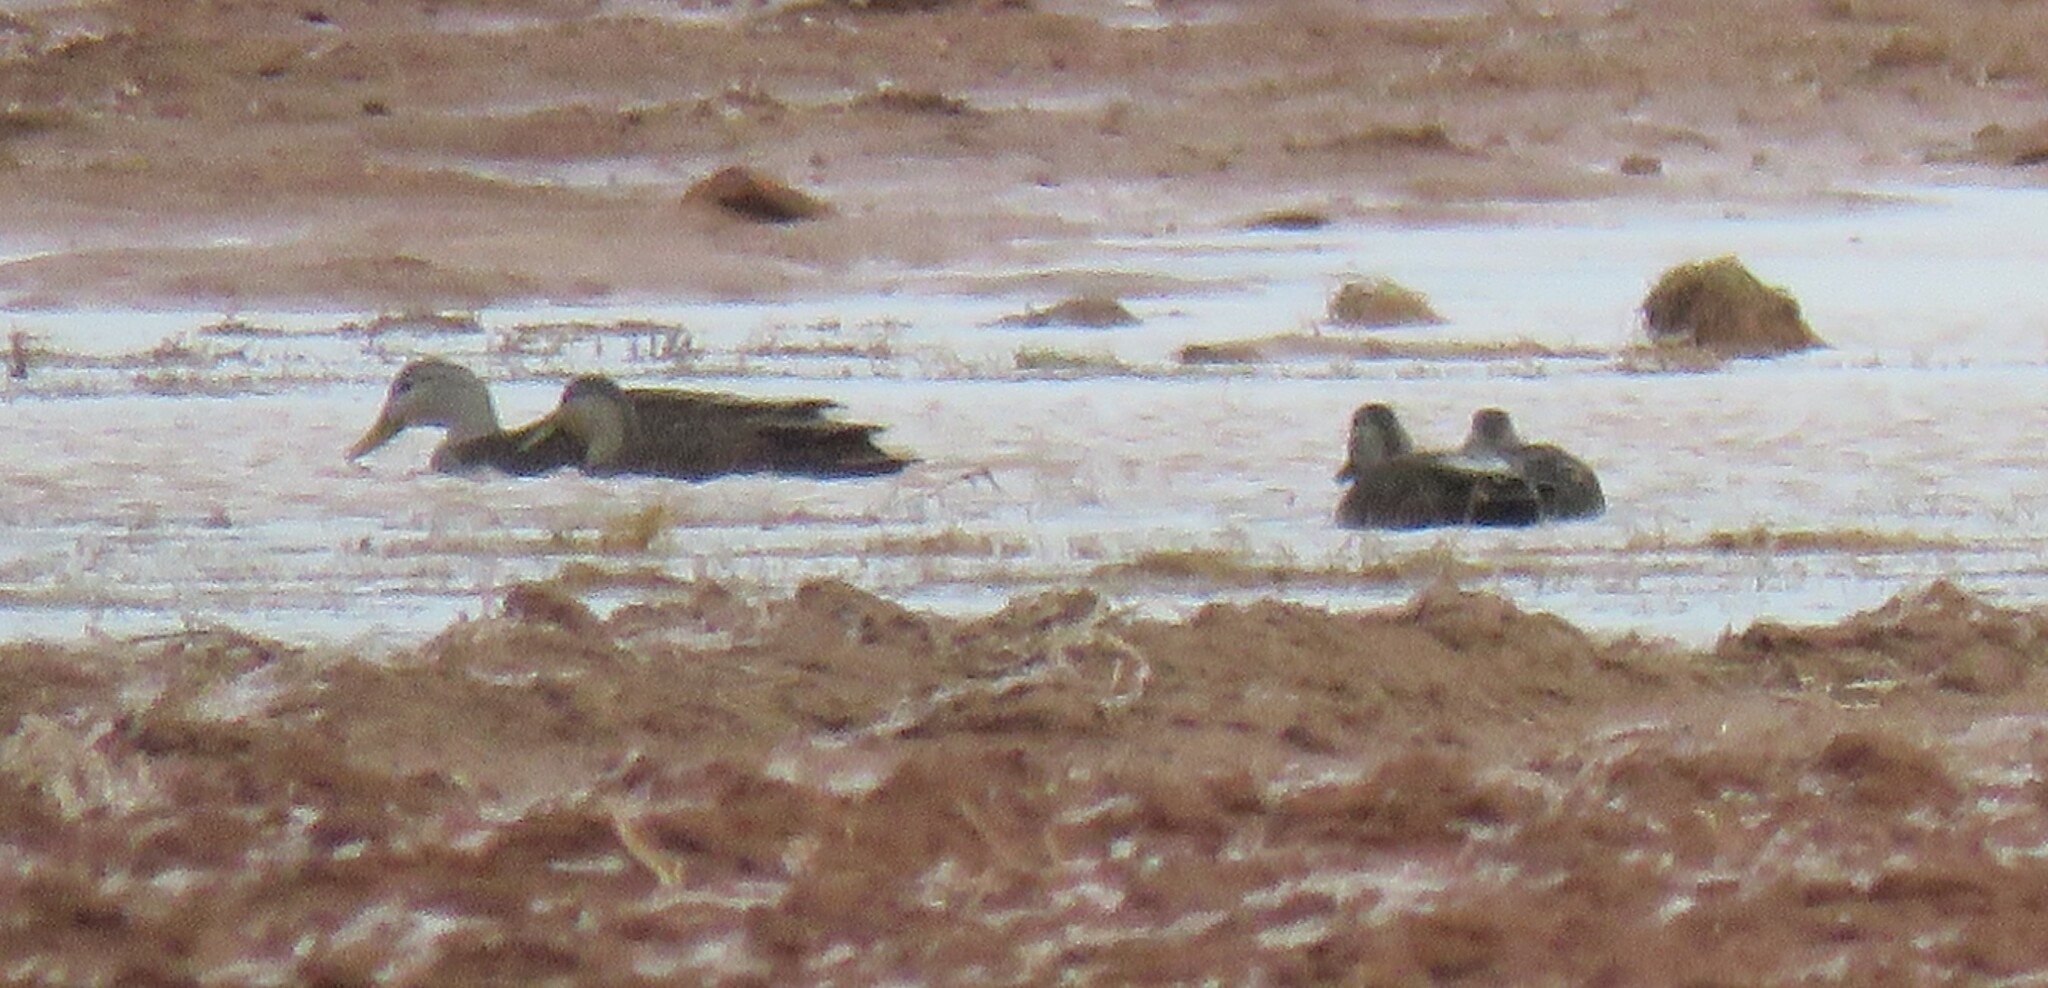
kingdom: Animalia
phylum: Chordata
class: Aves
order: Anseriformes
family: Anatidae
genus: Anas
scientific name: Anas rubripes
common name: American black duck
